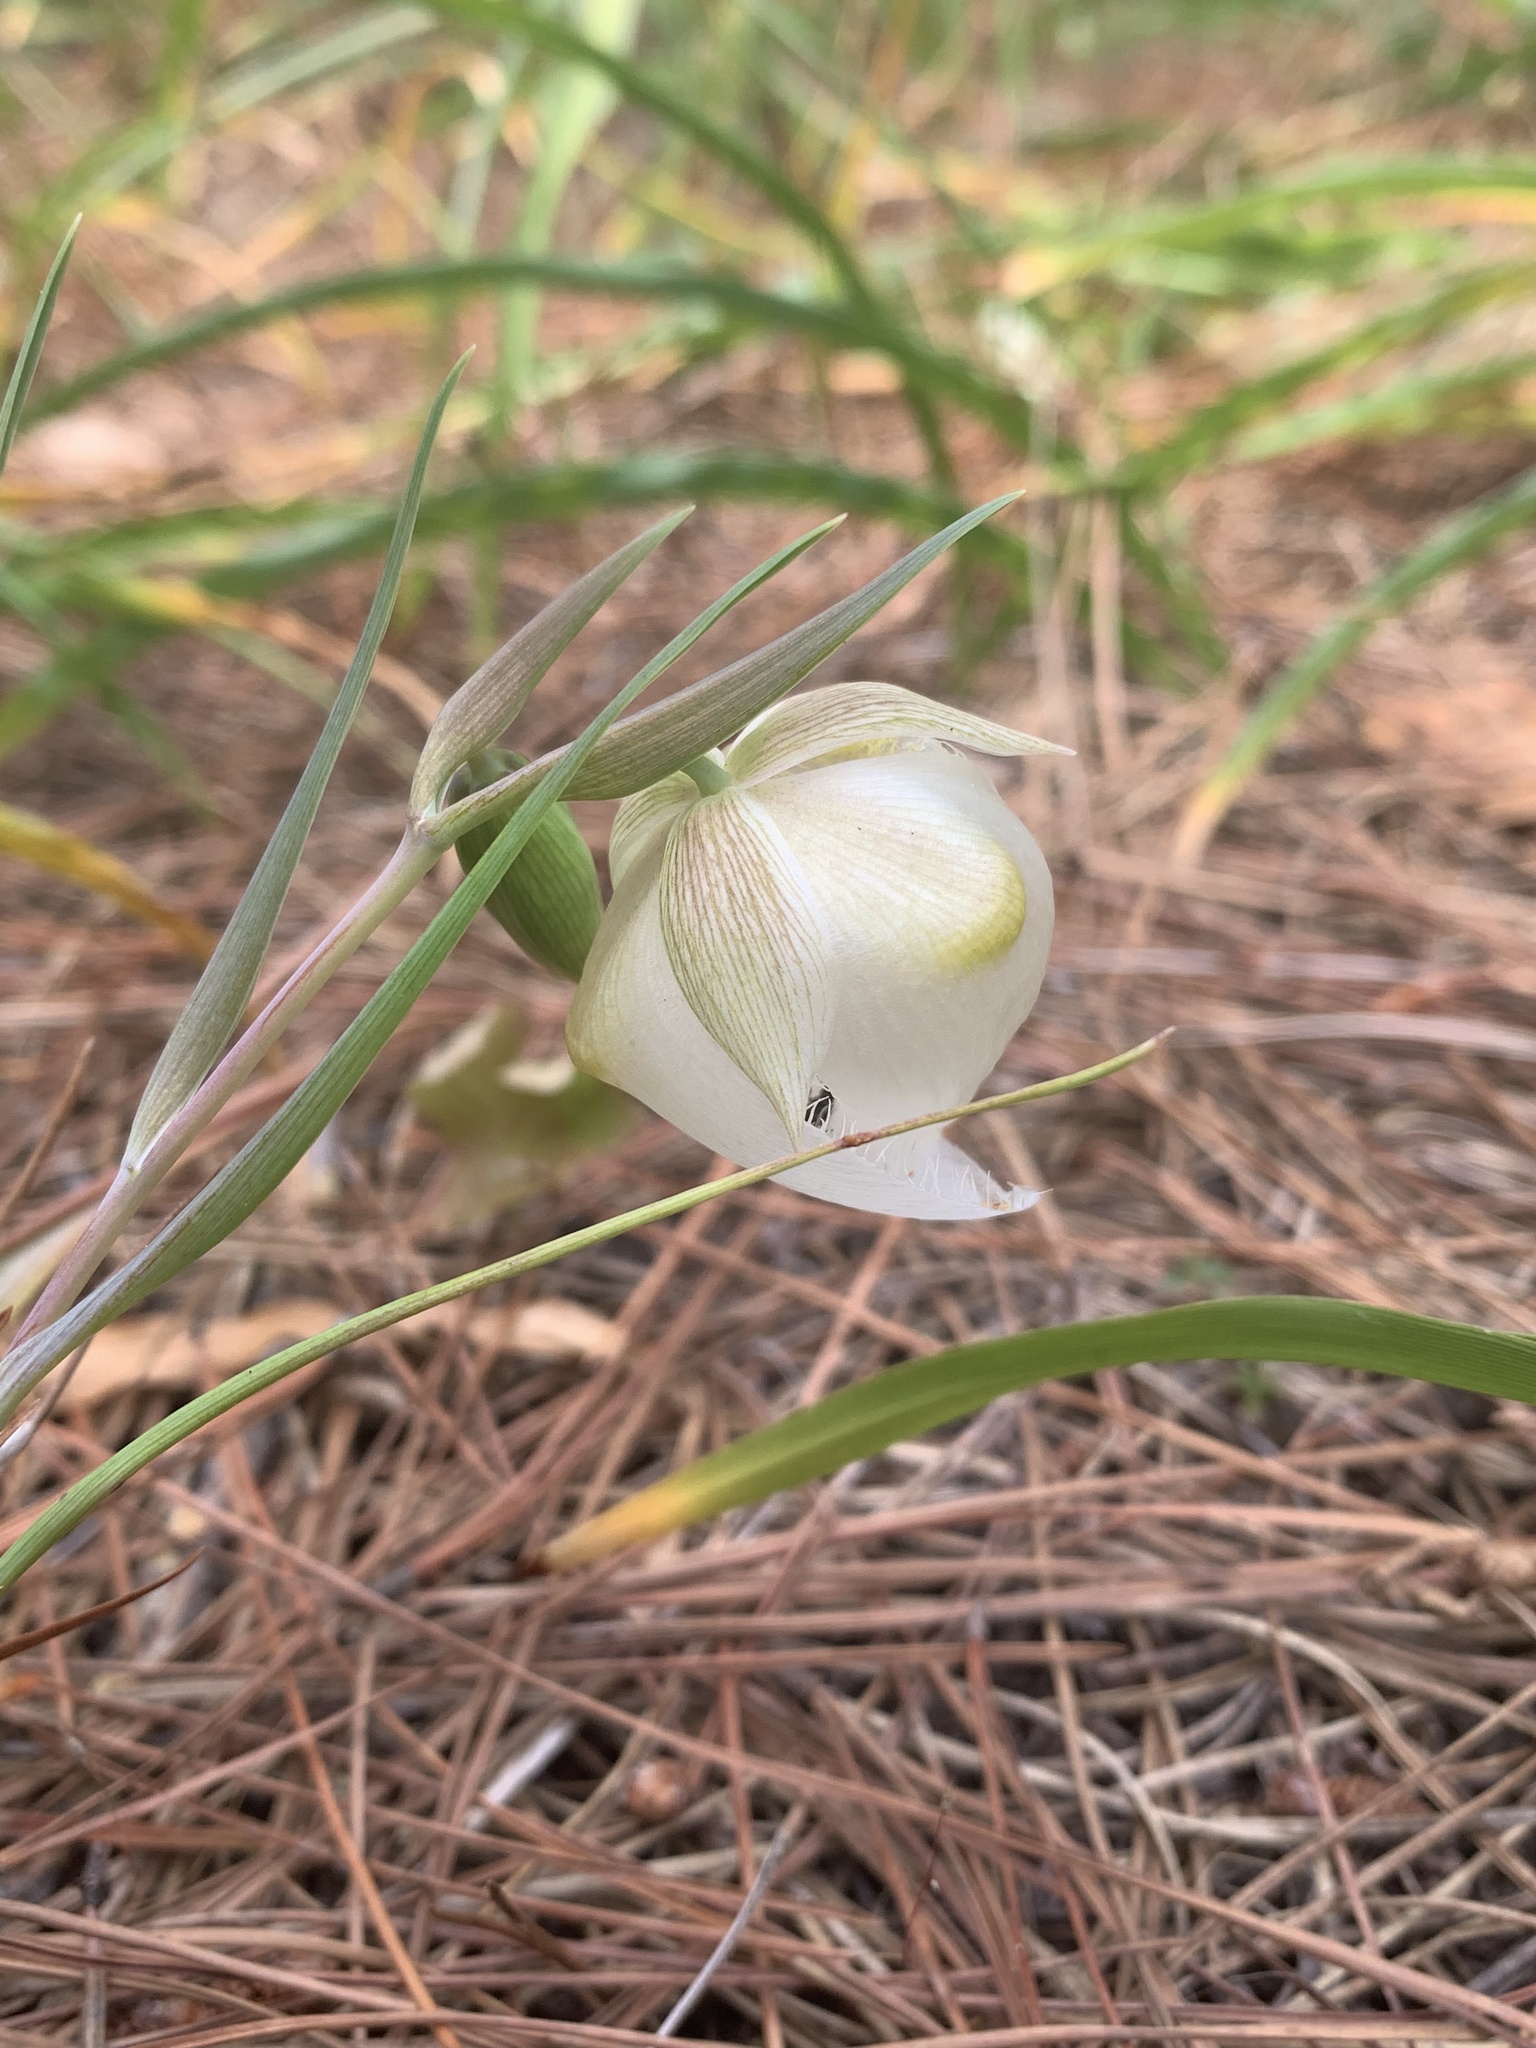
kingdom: Plantae
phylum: Tracheophyta
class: Liliopsida
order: Liliales
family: Liliaceae
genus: Calochortus
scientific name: Calochortus albus
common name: Fairy-lantern
